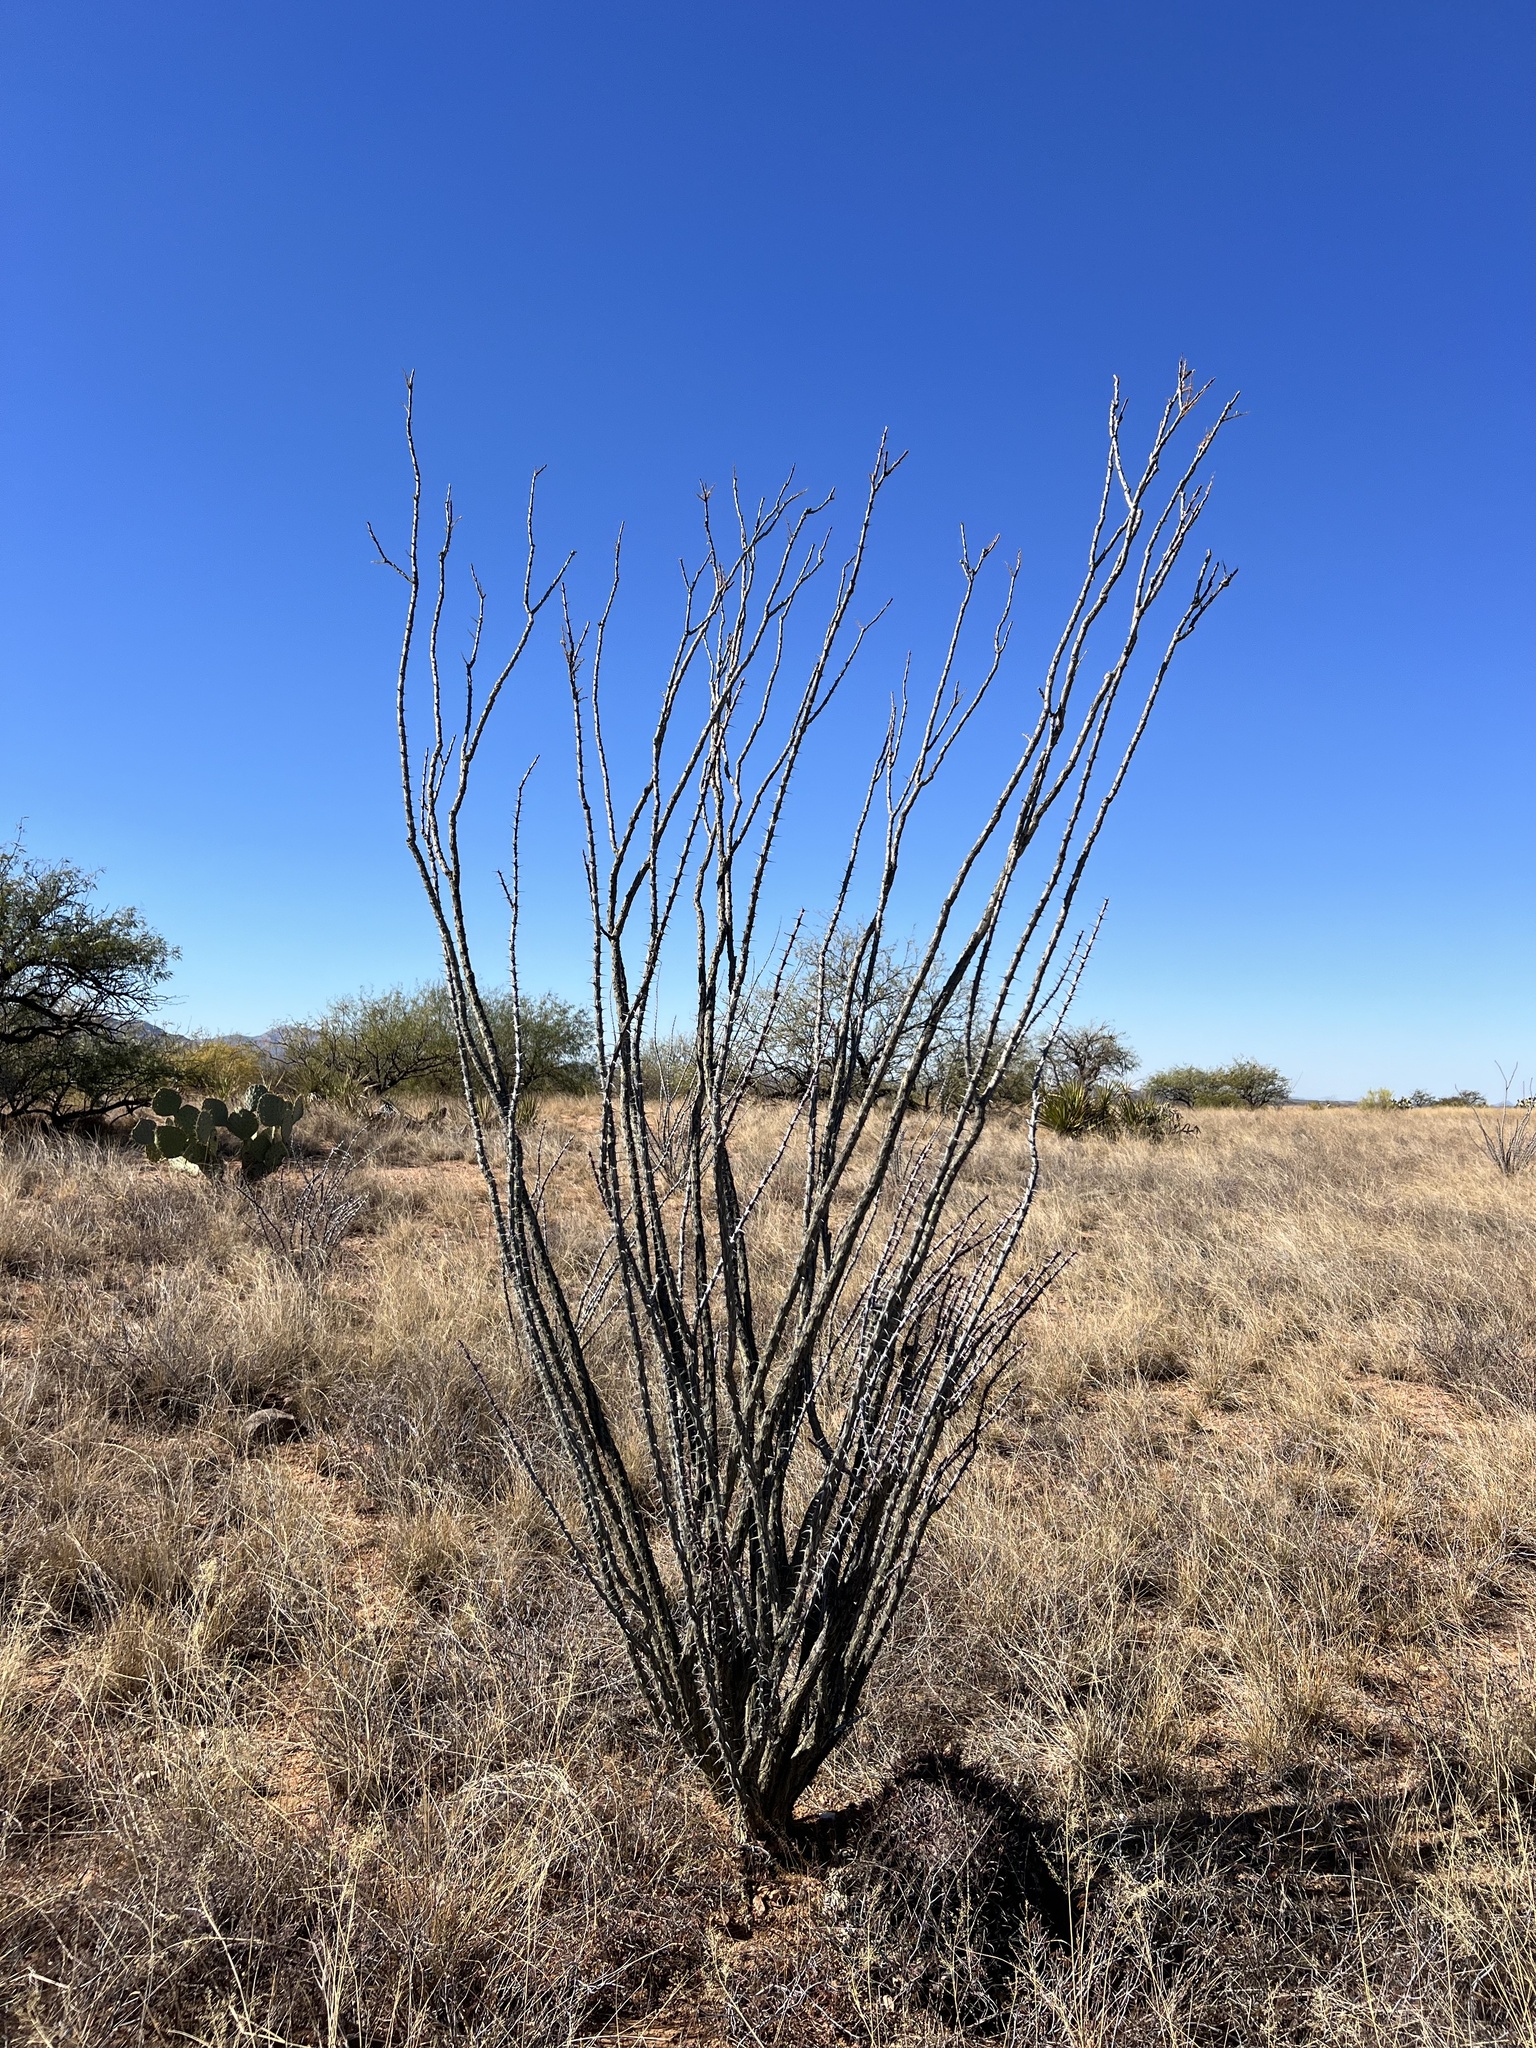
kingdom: Plantae
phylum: Tracheophyta
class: Magnoliopsida
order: Ericales
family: Fouquieriaceae
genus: Fouquieria
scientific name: Fouquieria splendens
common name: Vine-cactus
